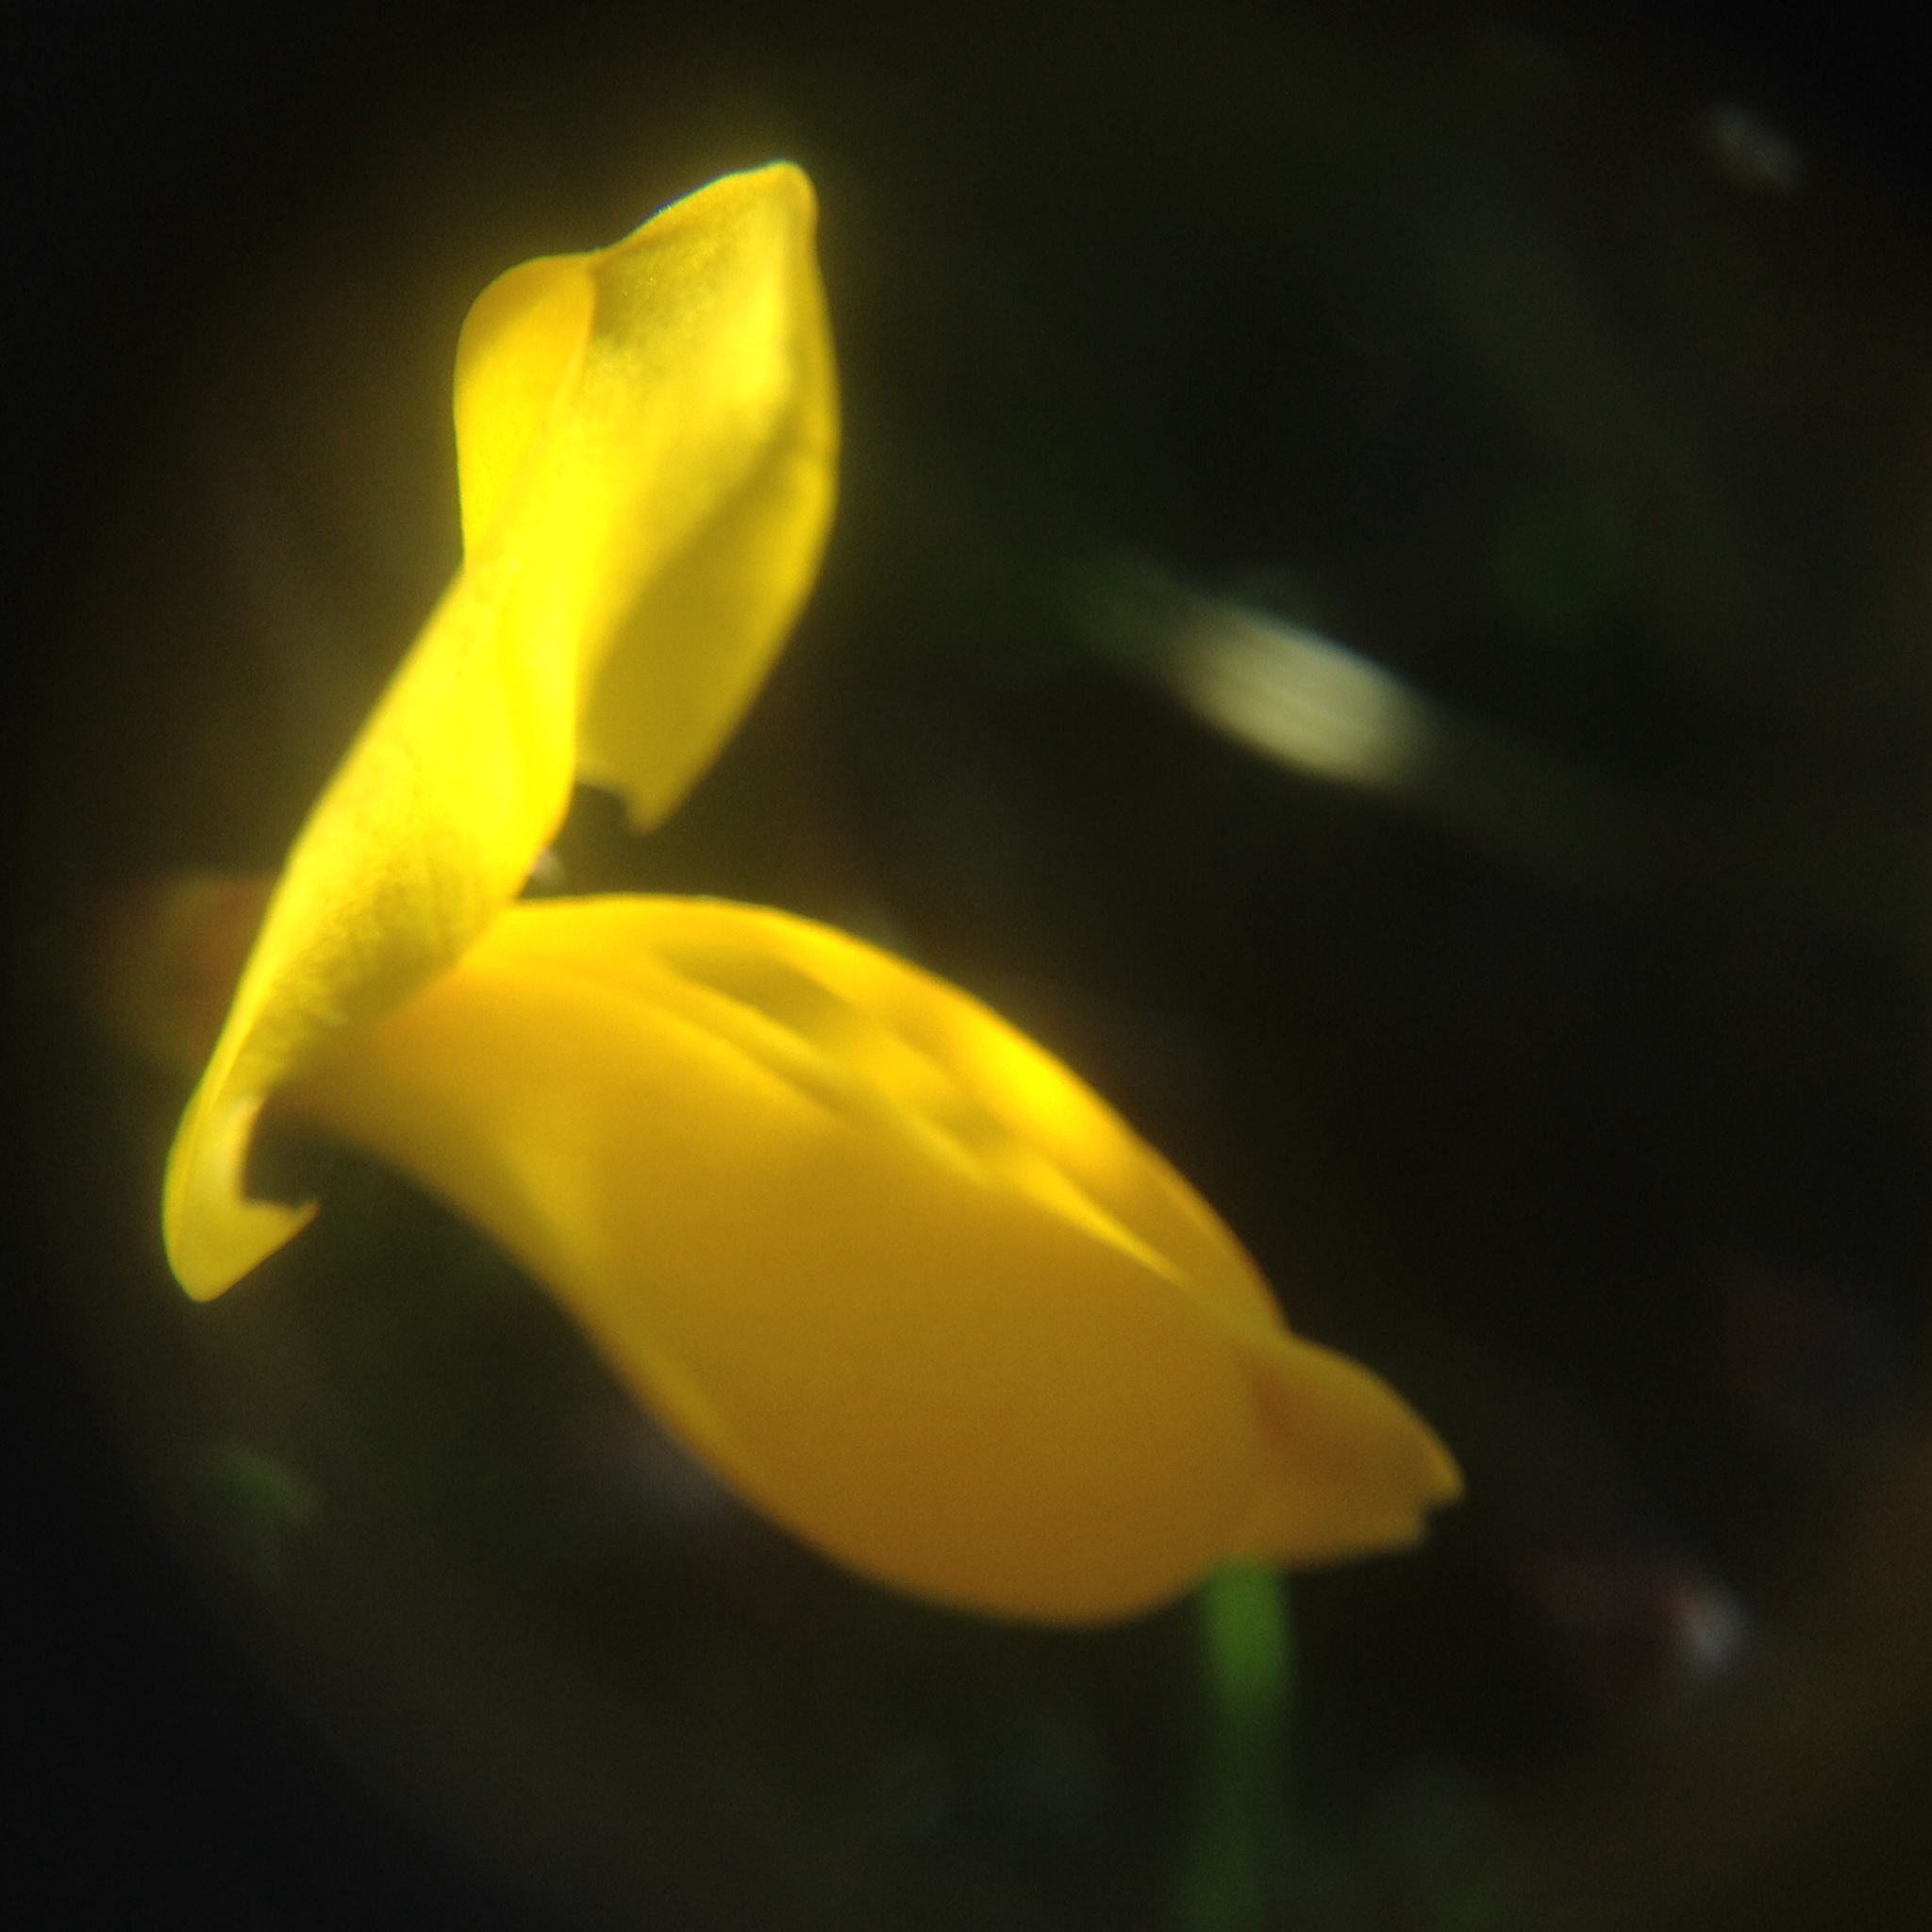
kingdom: Plantae
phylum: Tracheophyta
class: Magnoliopsida
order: Fabales
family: Fabaceae
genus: Cytisus
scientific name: Cytisus scoparius
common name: Scotch broom
